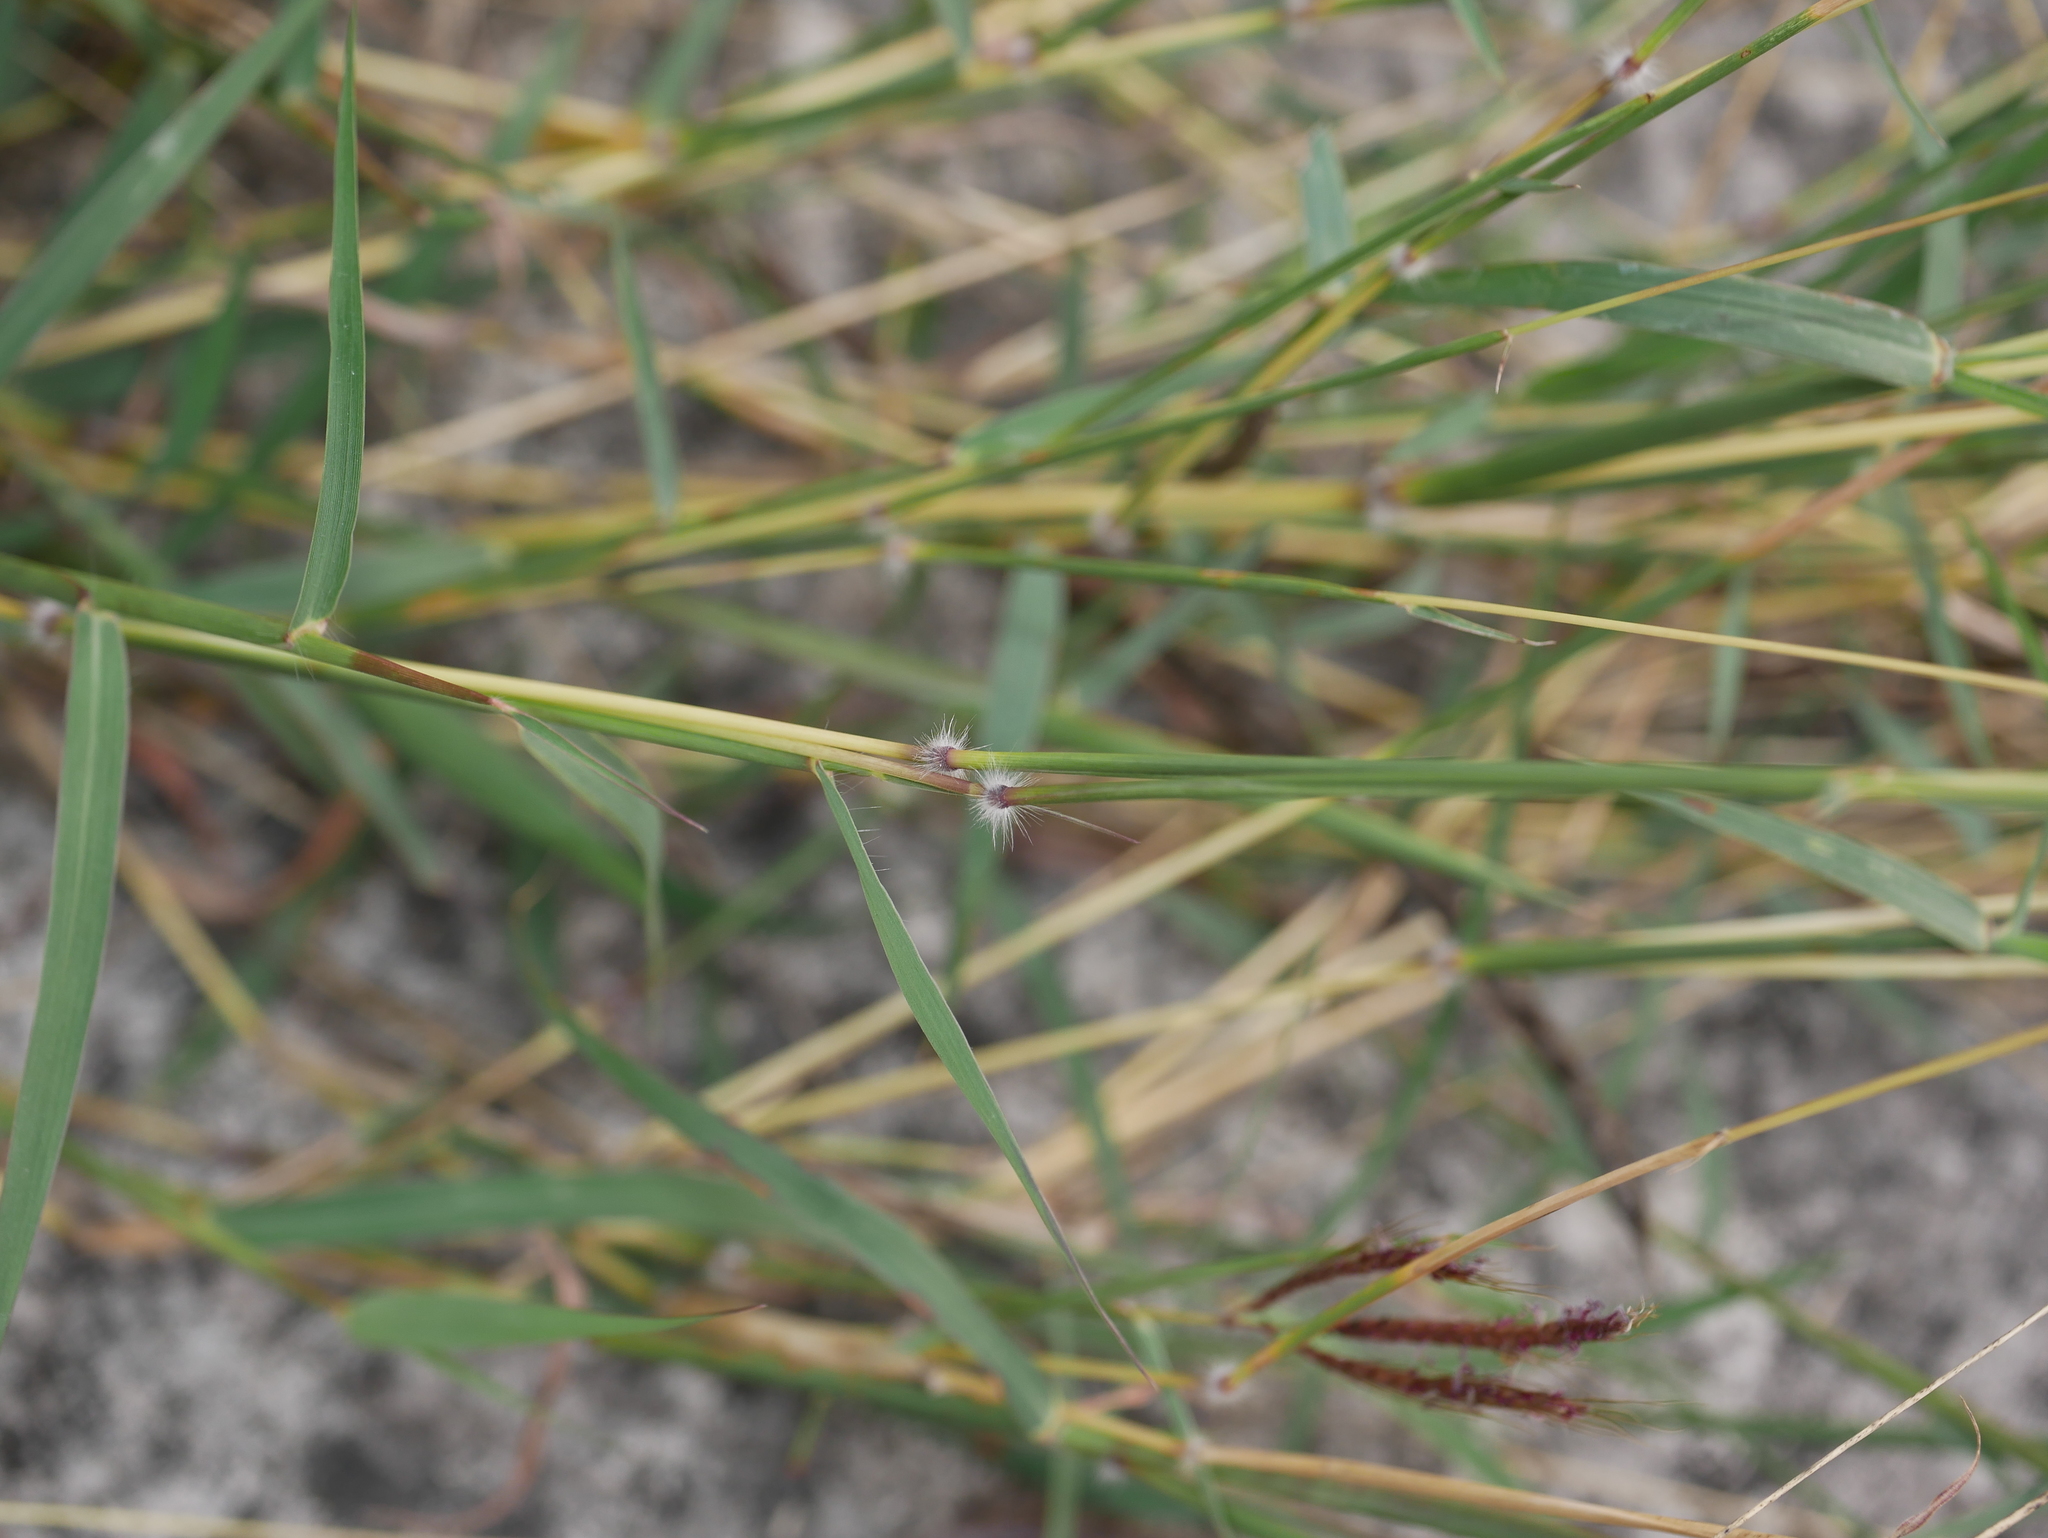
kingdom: Plantae
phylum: Tracheophyta
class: Liliopsida
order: Poales
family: Poaceae
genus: Dichanthium
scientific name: Dichanthium annulatum
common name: Kleberg's bluestem
